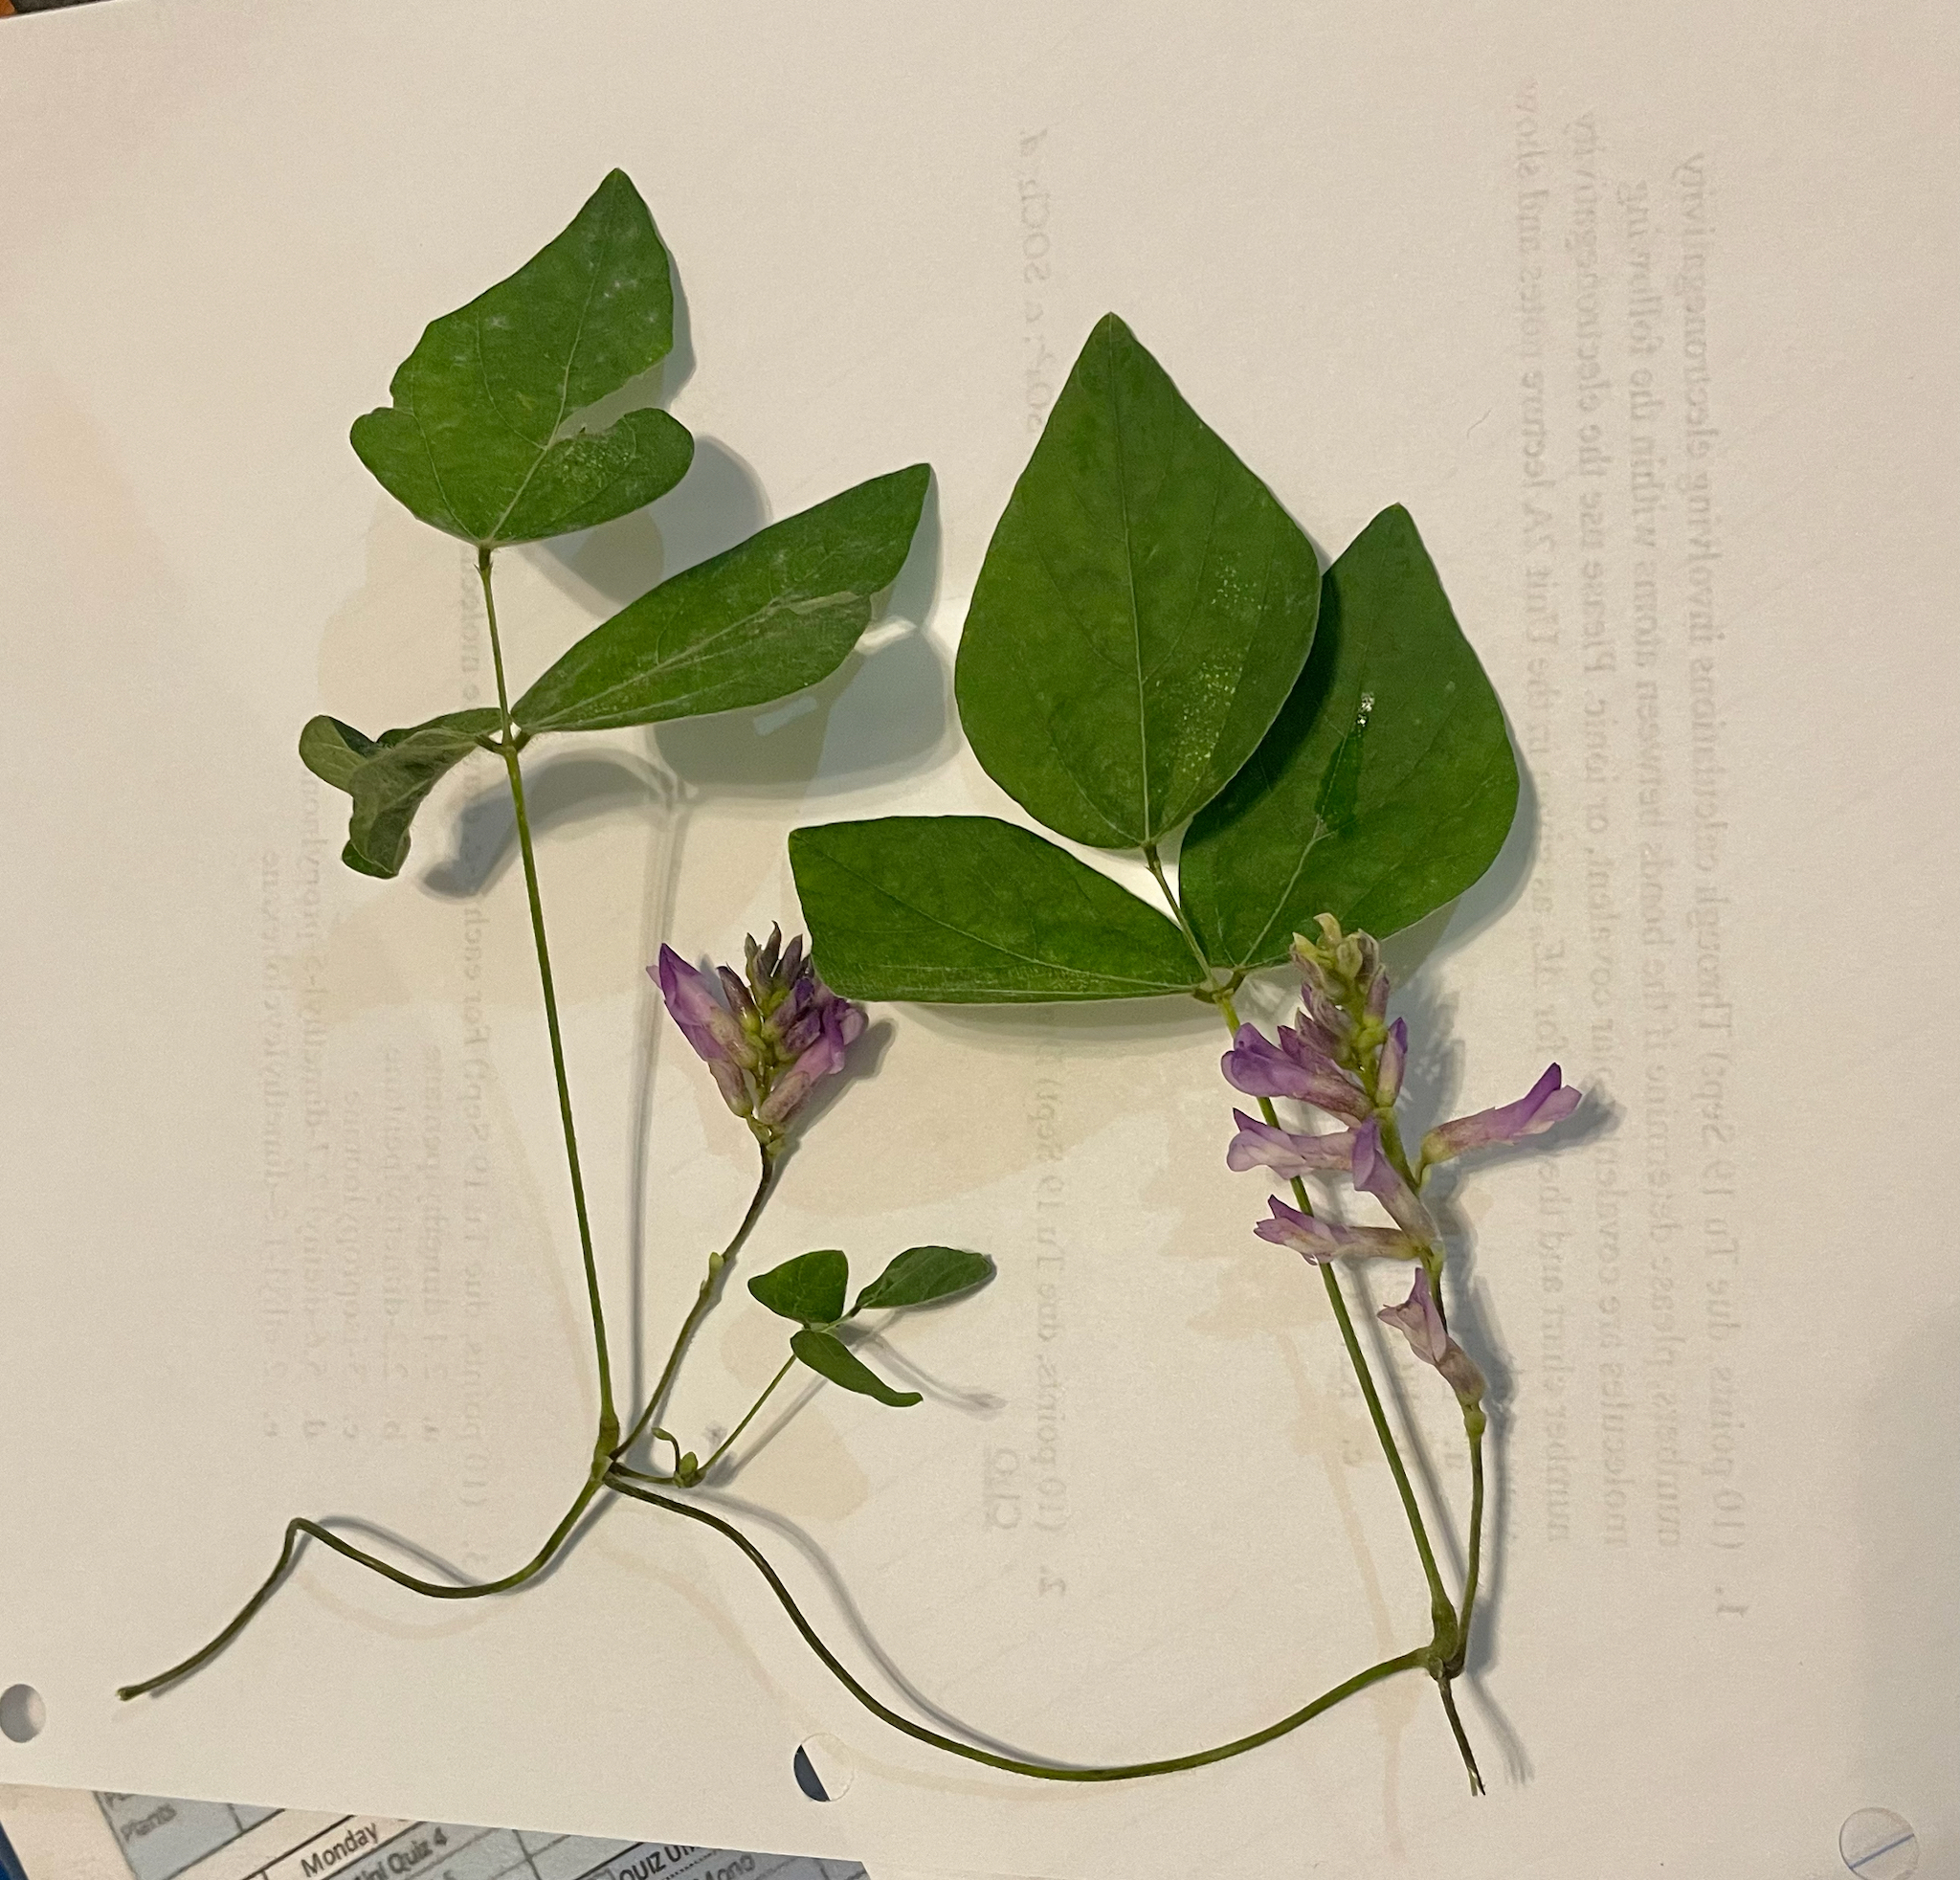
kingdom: Plantae
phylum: Tracheophyta
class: Magnoliopsida
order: Fabales
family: Fabaceae
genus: Amphicarpaea
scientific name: Amphicarpaea bracteata
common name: American hog peanut
